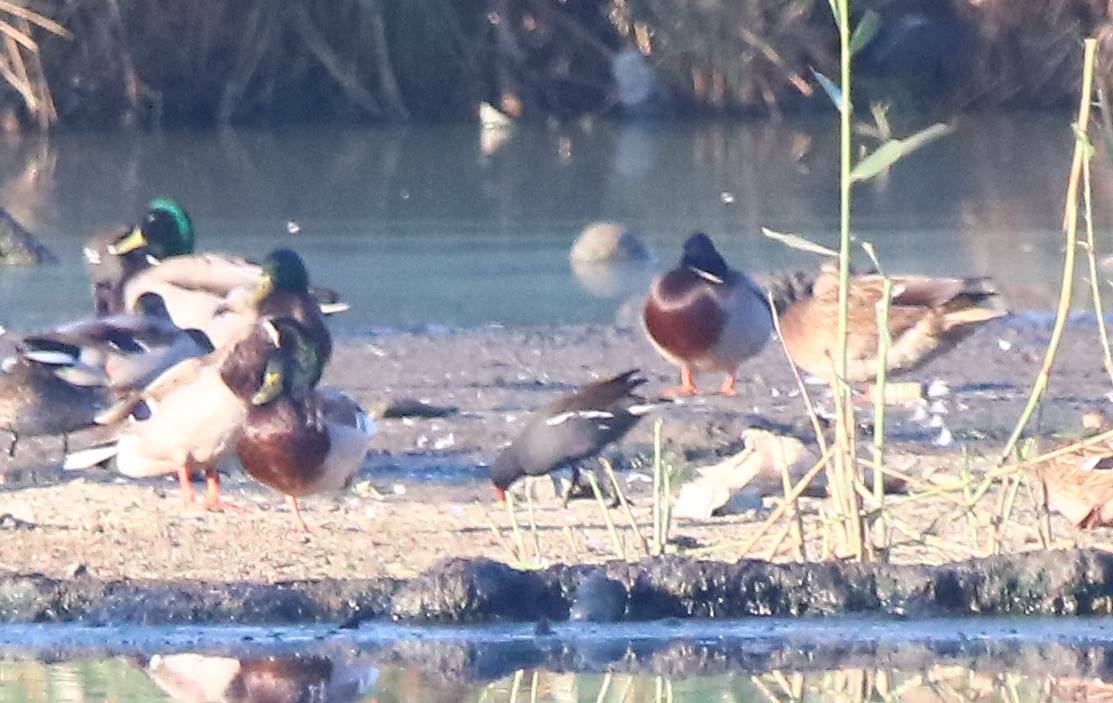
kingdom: Animalia
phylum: Chordata
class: Aves
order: Anseriformes
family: Anatidae
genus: Anas
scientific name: Anas platyrhynchos
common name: Mallard
